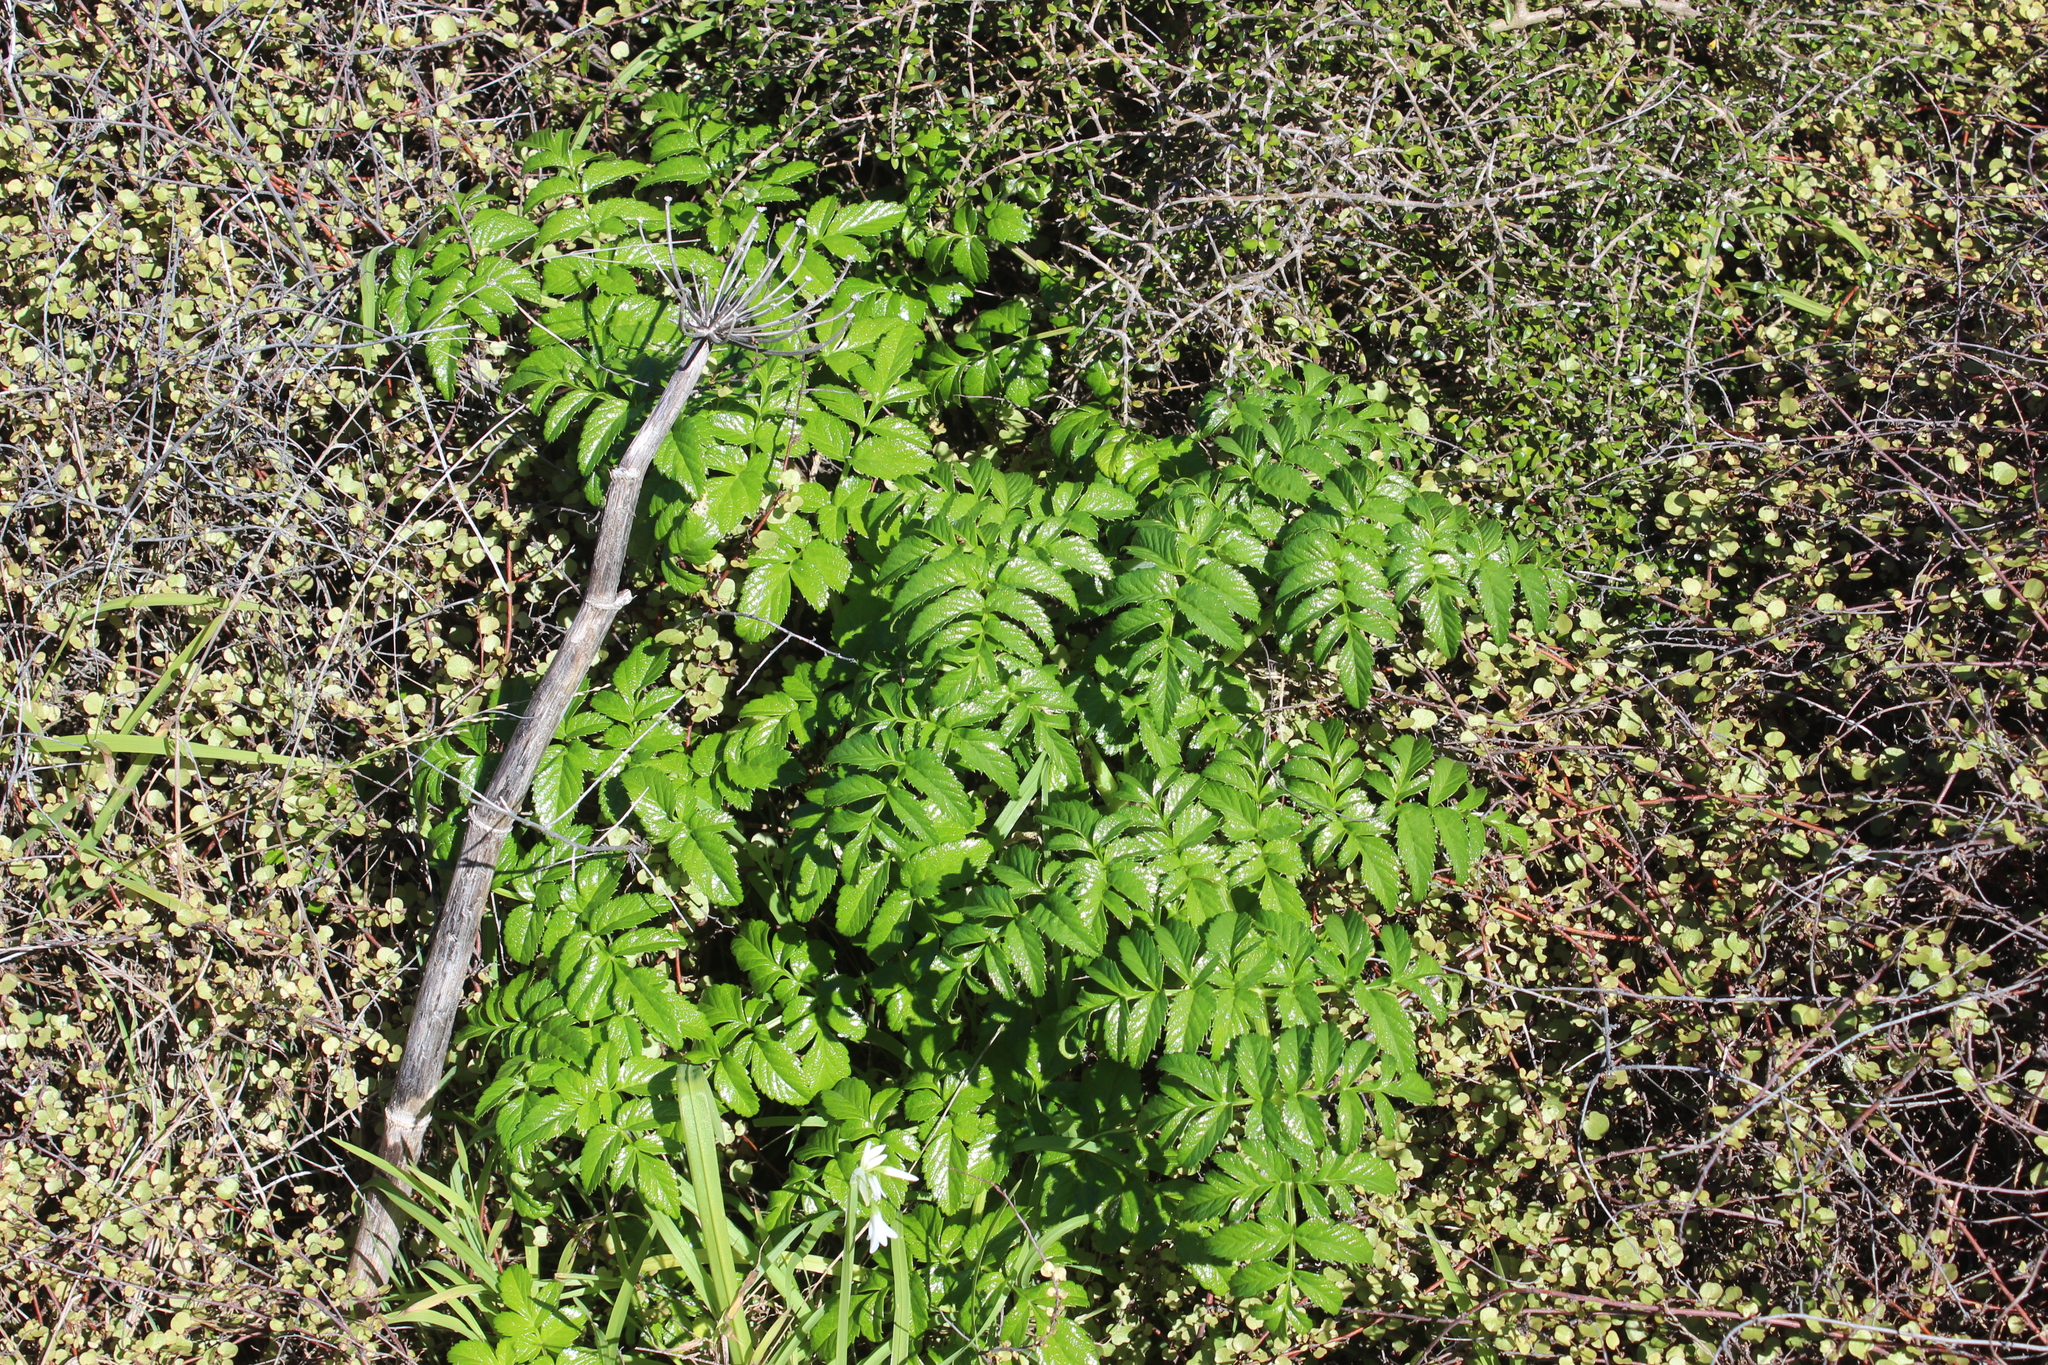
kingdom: Plantae
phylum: Tracheophyta
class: Magnoliopsida
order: Apiales
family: Apiaceae
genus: Angelica
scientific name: Angelica pachycarpa
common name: Portuguese angelica
